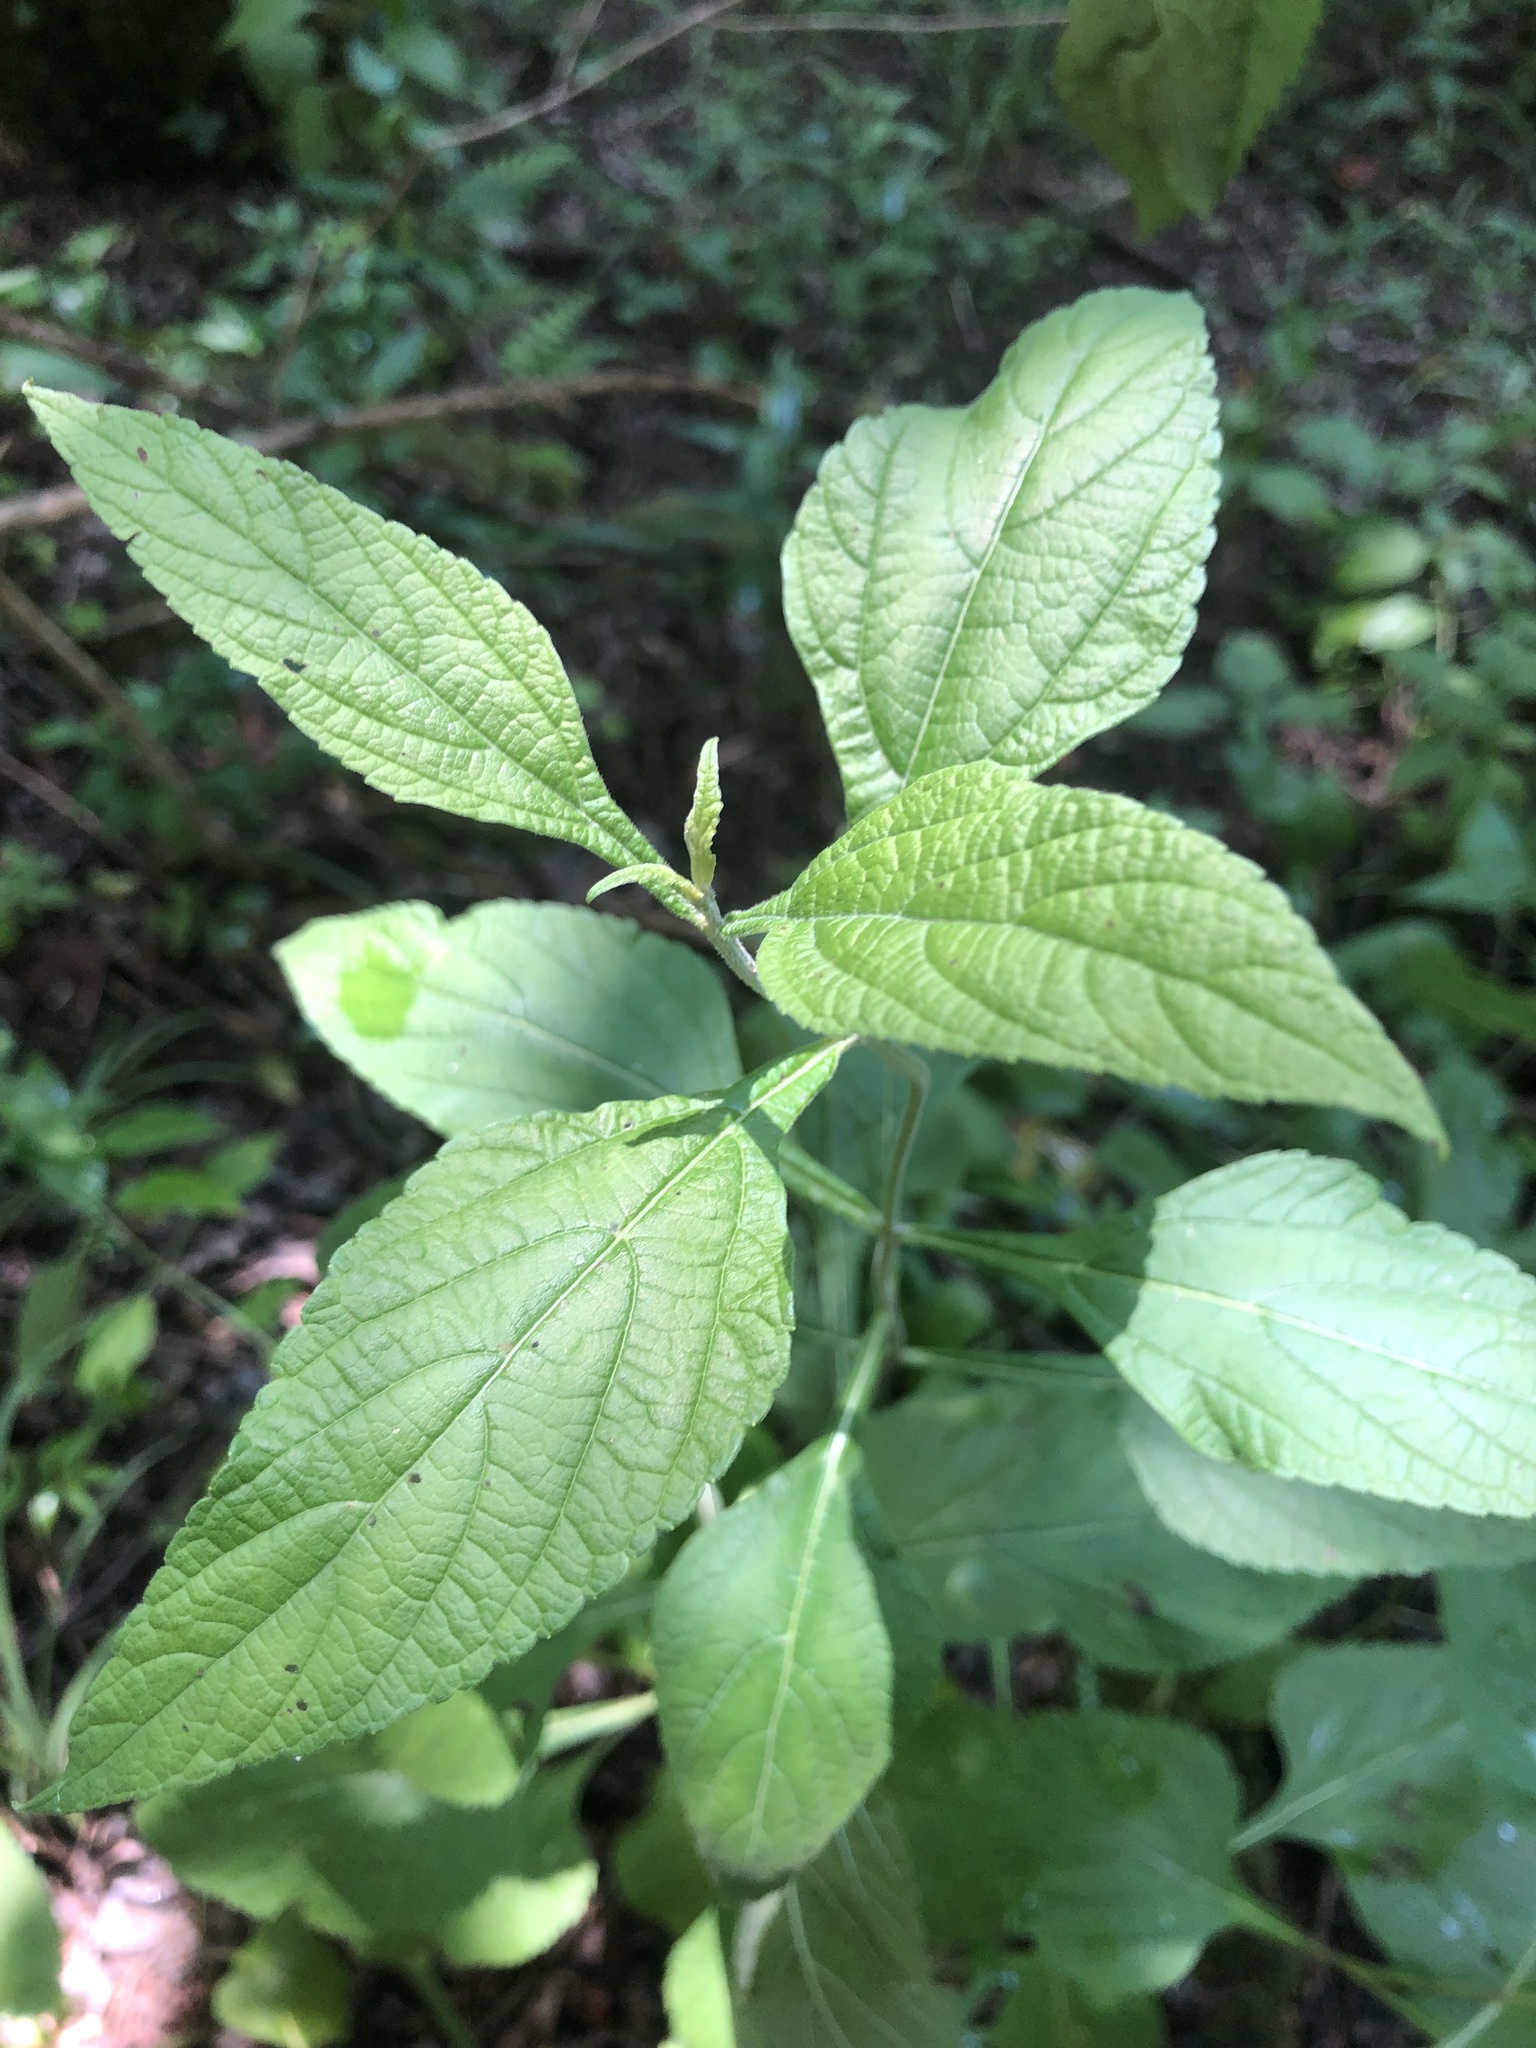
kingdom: Plantae
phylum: Tracheophyta
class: Magnoliopsida
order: Lamiales
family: Lamiaceae
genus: Salvia
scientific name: Salvia chapmanii
